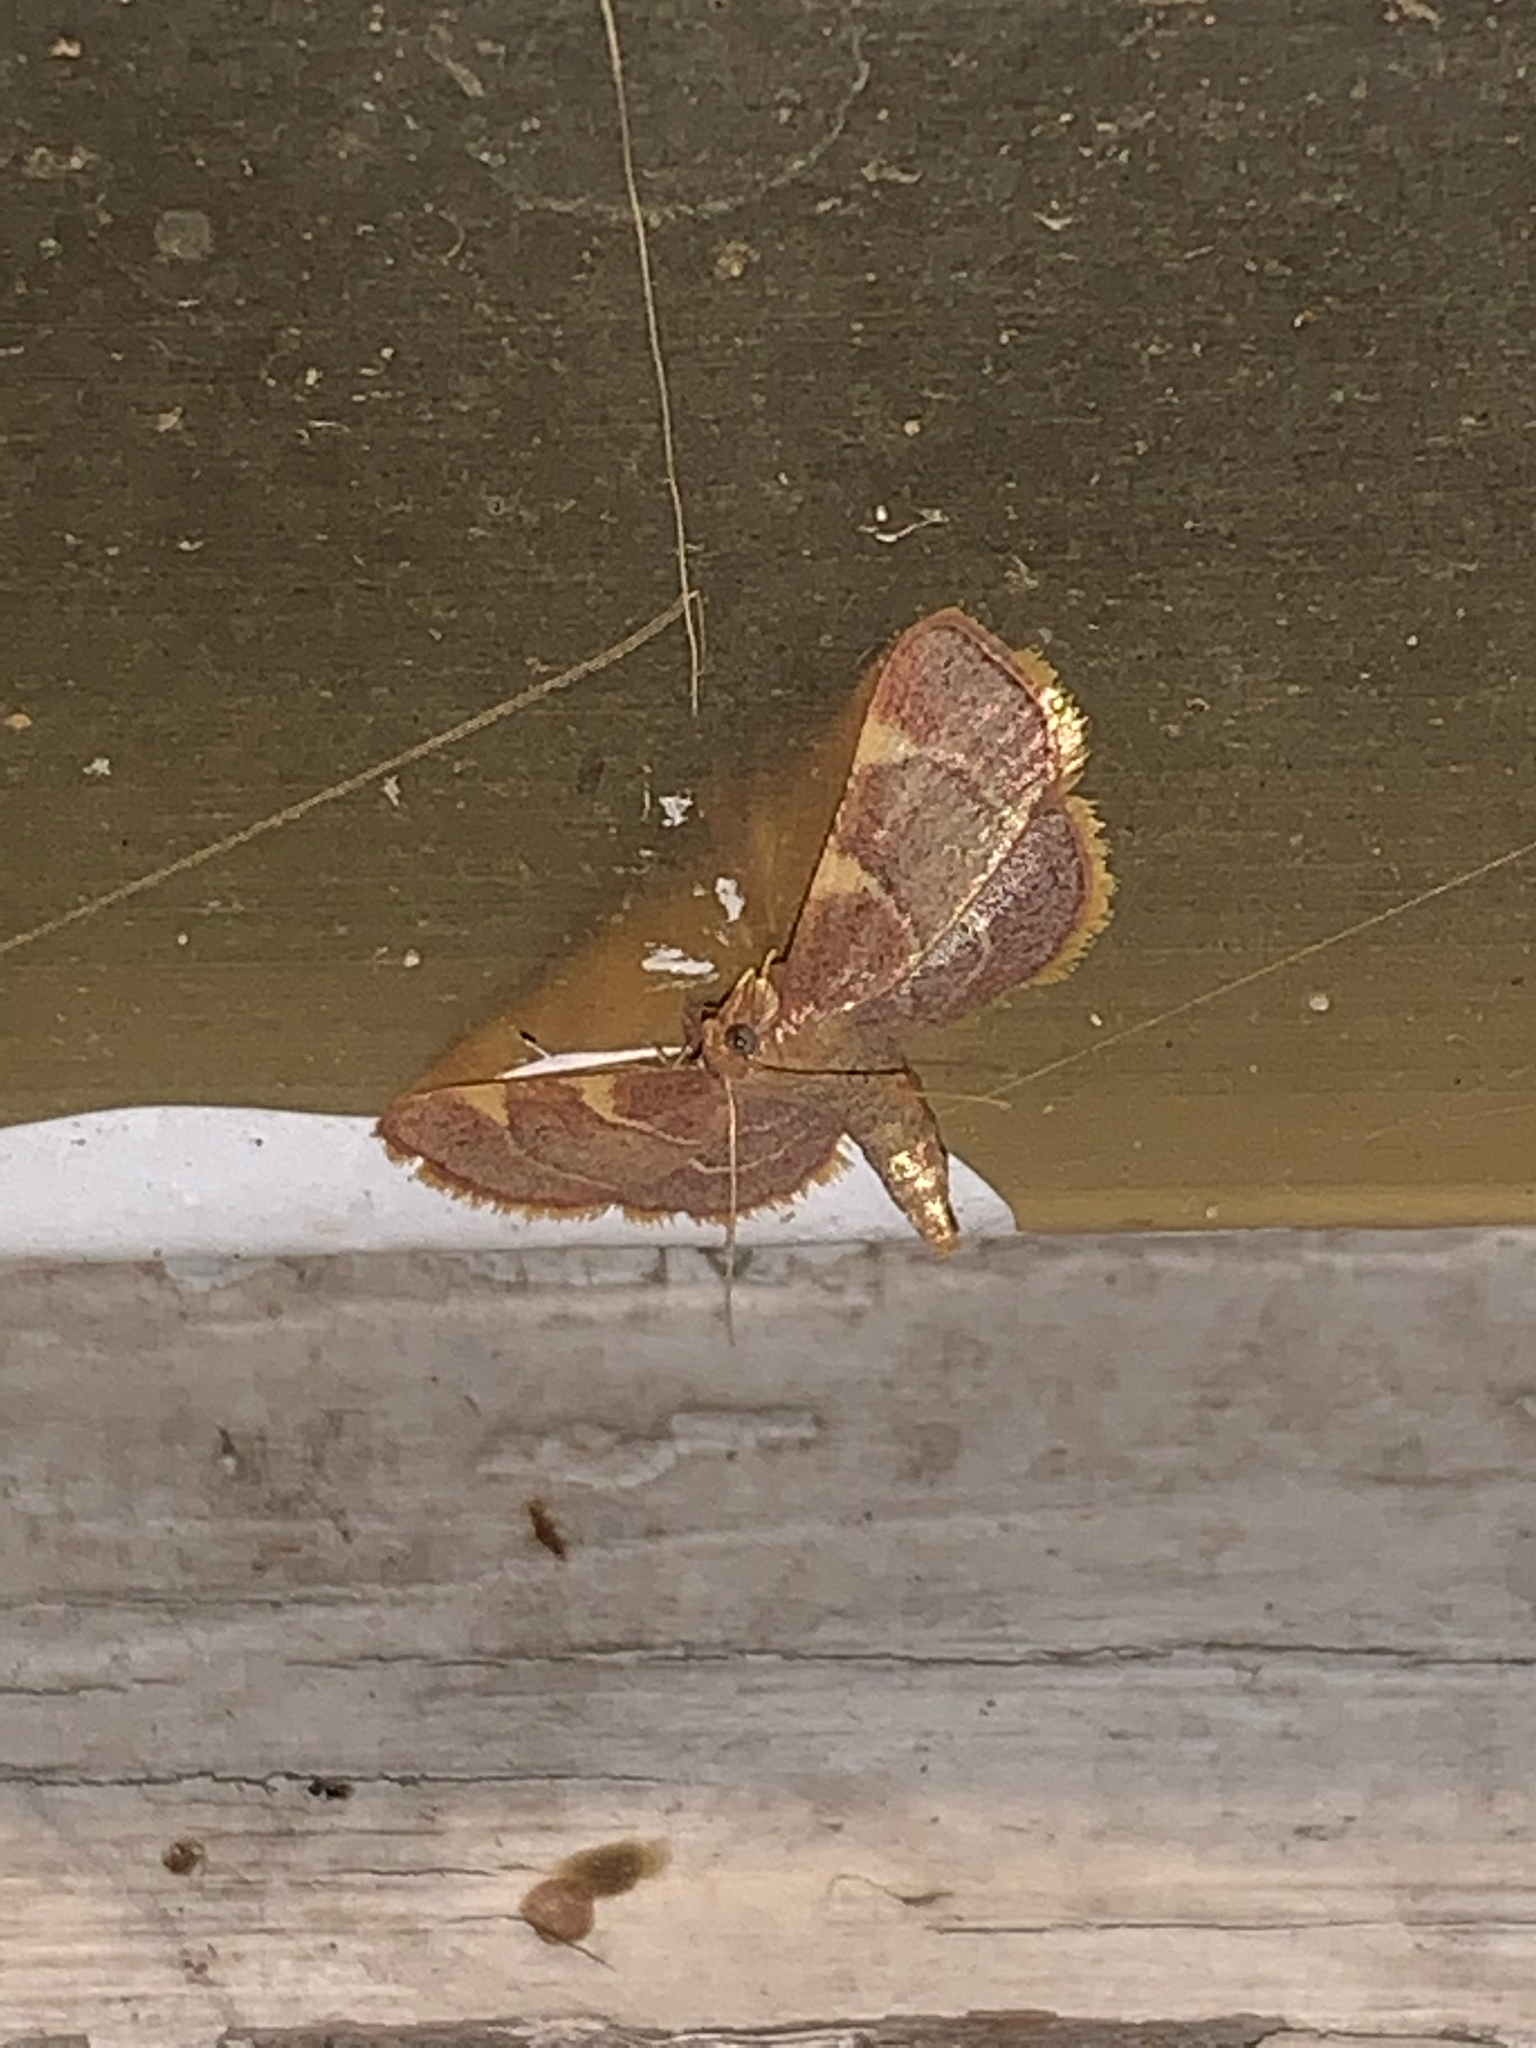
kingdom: Animalia
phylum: Arthropoda
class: Insecta
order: Lepidoptera
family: Pyralidae
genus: Hypsopygia
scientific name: Hypsopygia olinalis
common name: Yellow-fringed dolichomia moth
